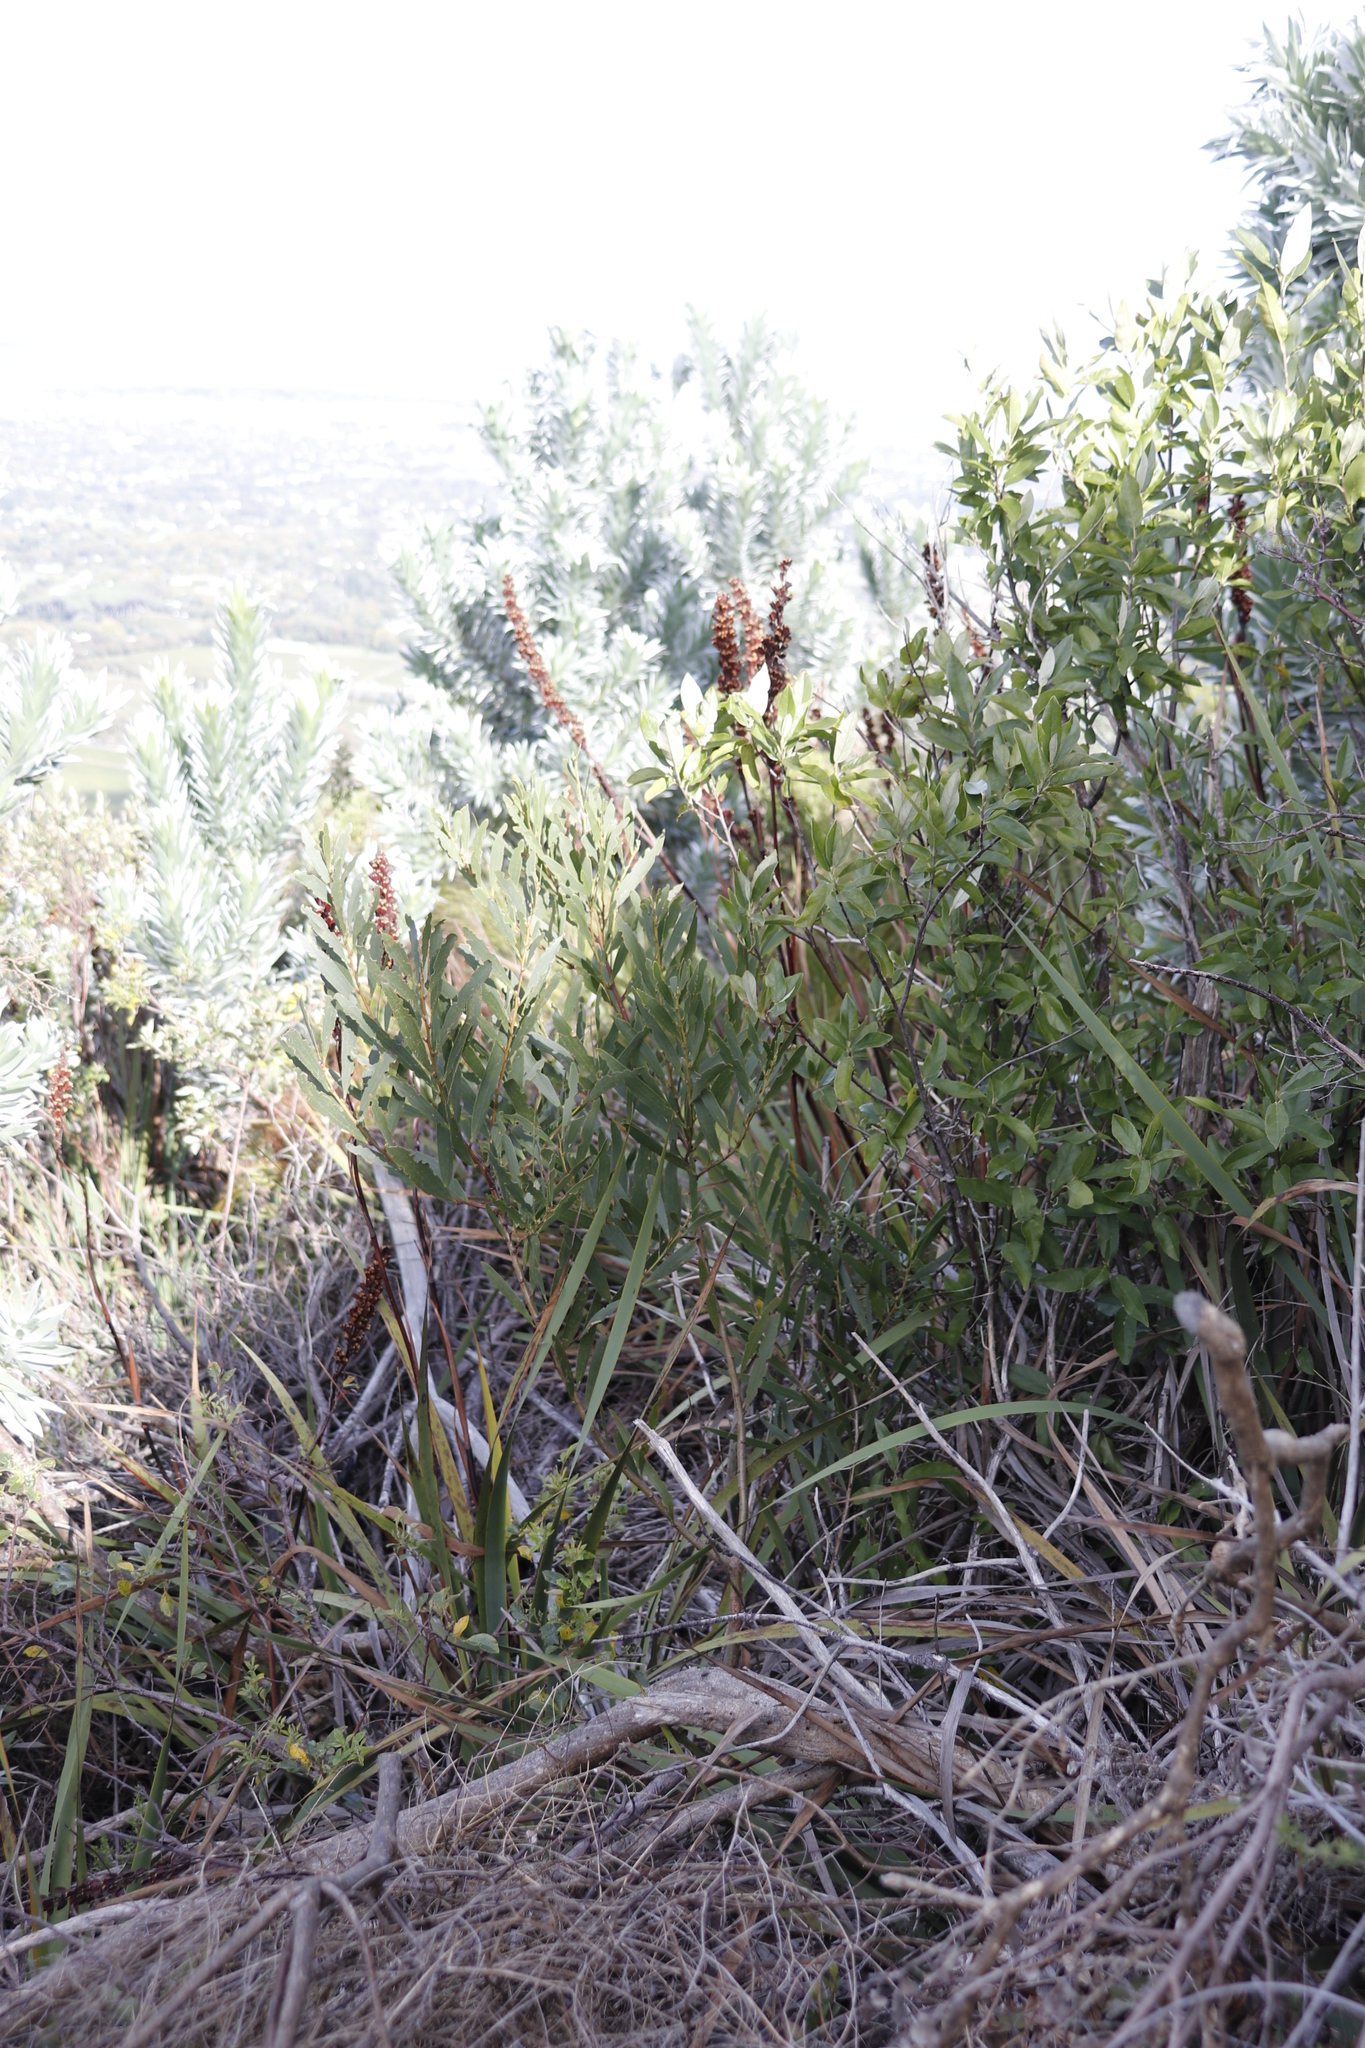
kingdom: Plantae
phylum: Tracheophyta
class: Magnoliopsida
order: Fabales
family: Fabaceae
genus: Acacia
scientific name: Acacia longifolia
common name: Sydney golden wattle
